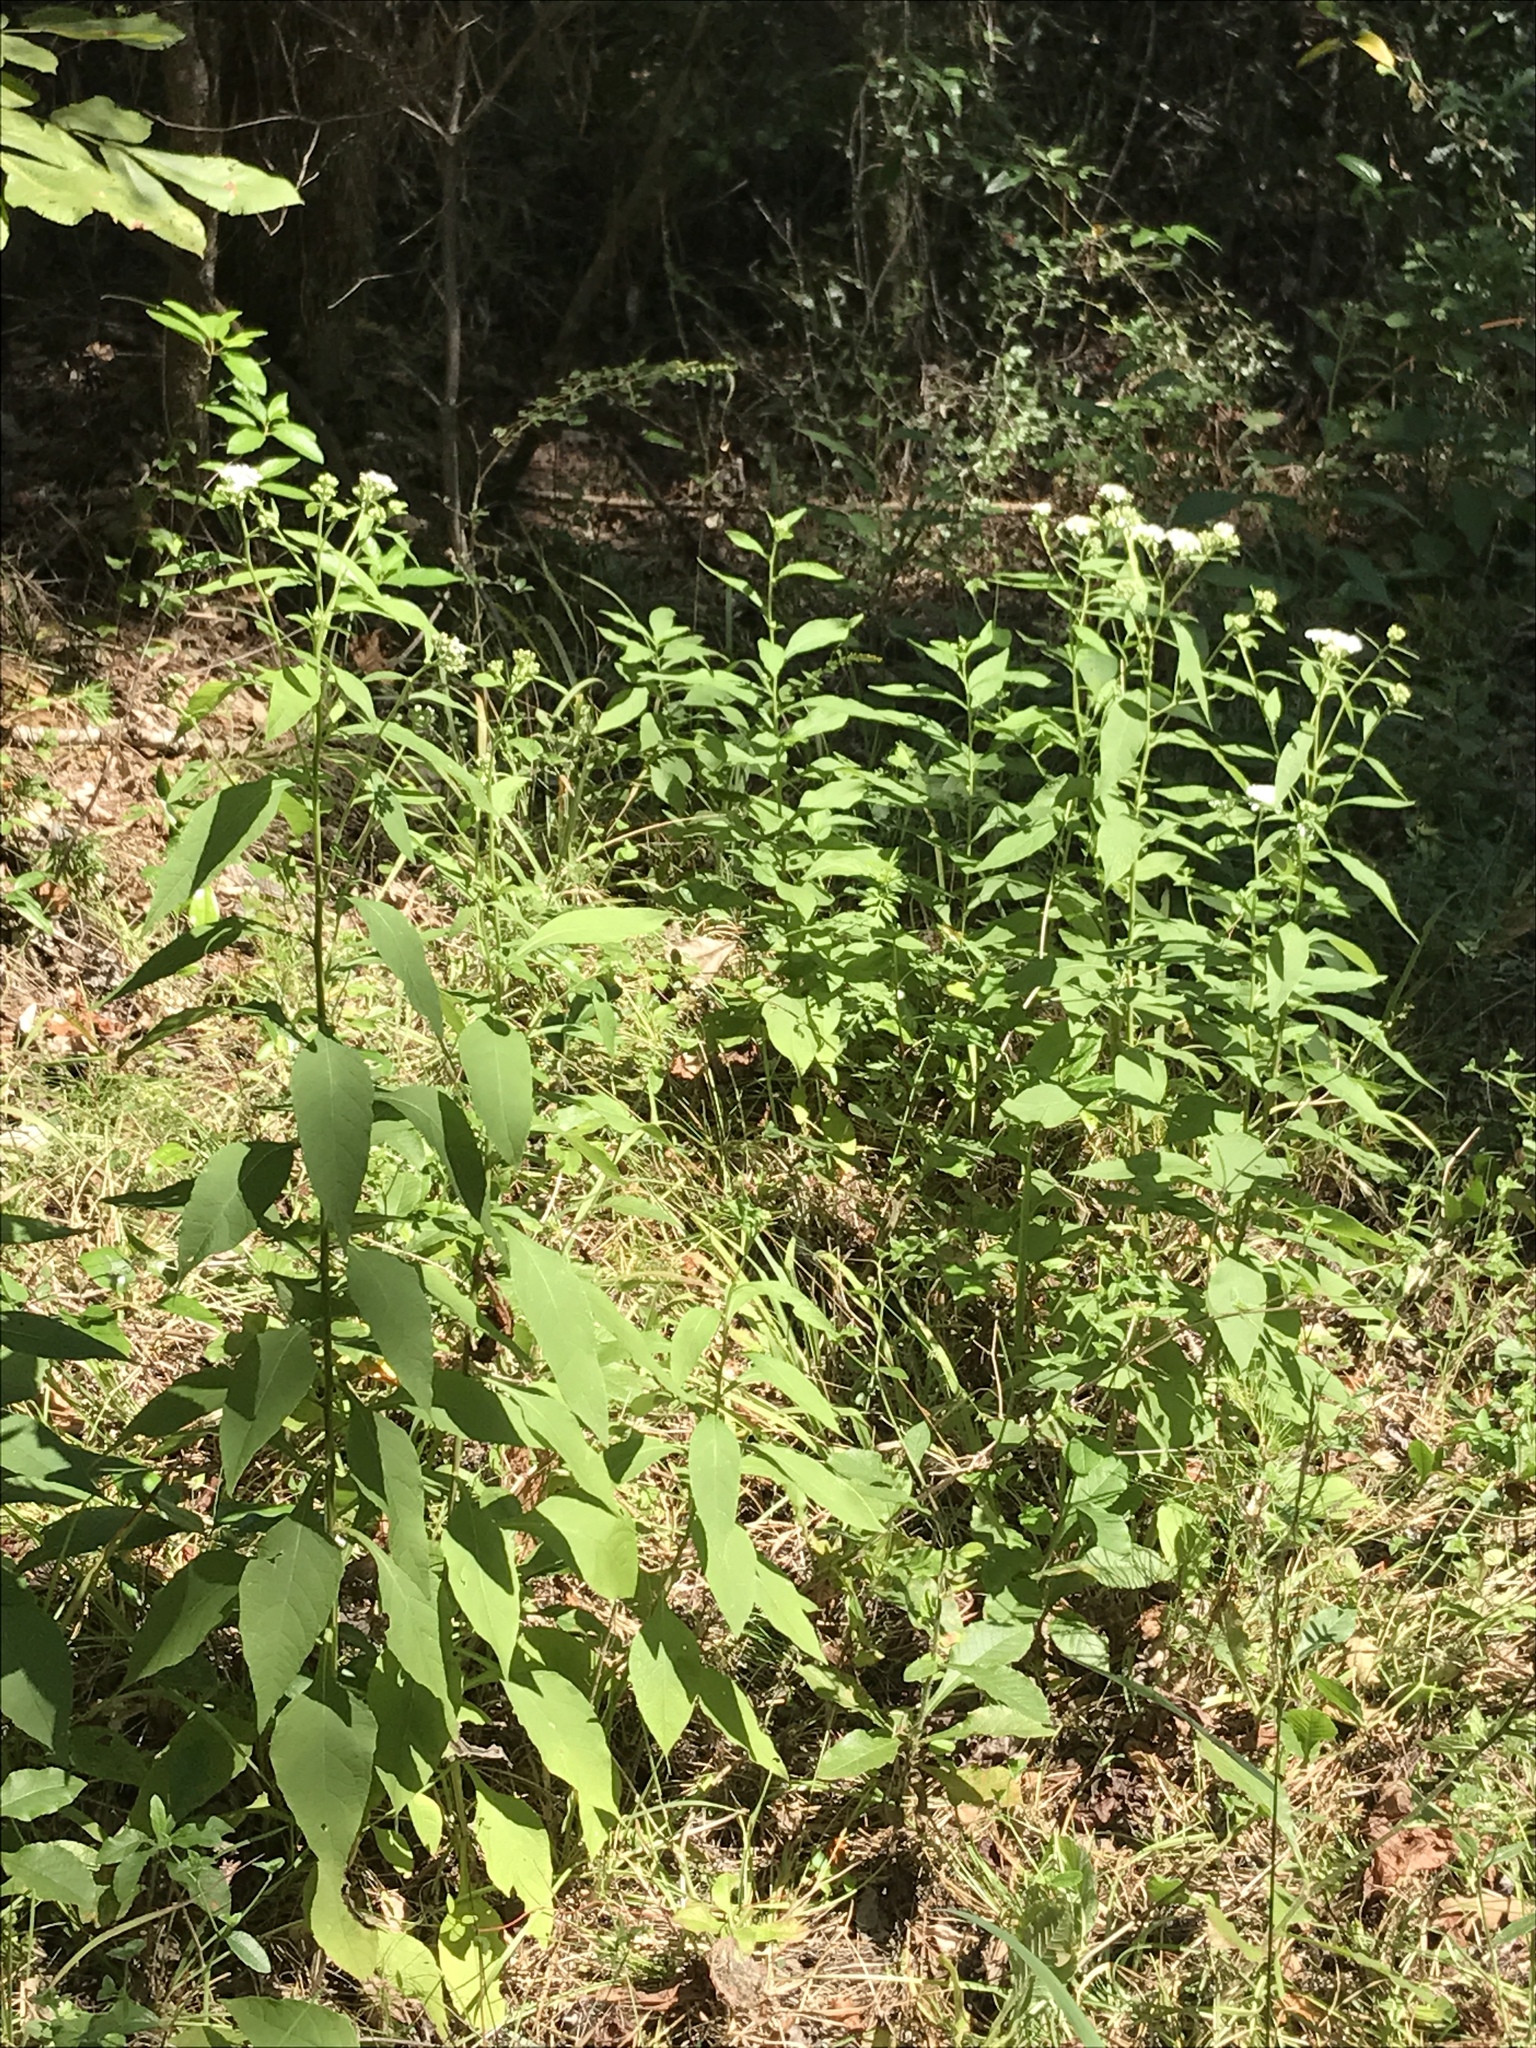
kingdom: Plantae
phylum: Tracheophyta
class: Magnoliopsida
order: Asterales
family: Asteraceae
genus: Verbesina
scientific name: Verbesina virginica
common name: Frostweed
